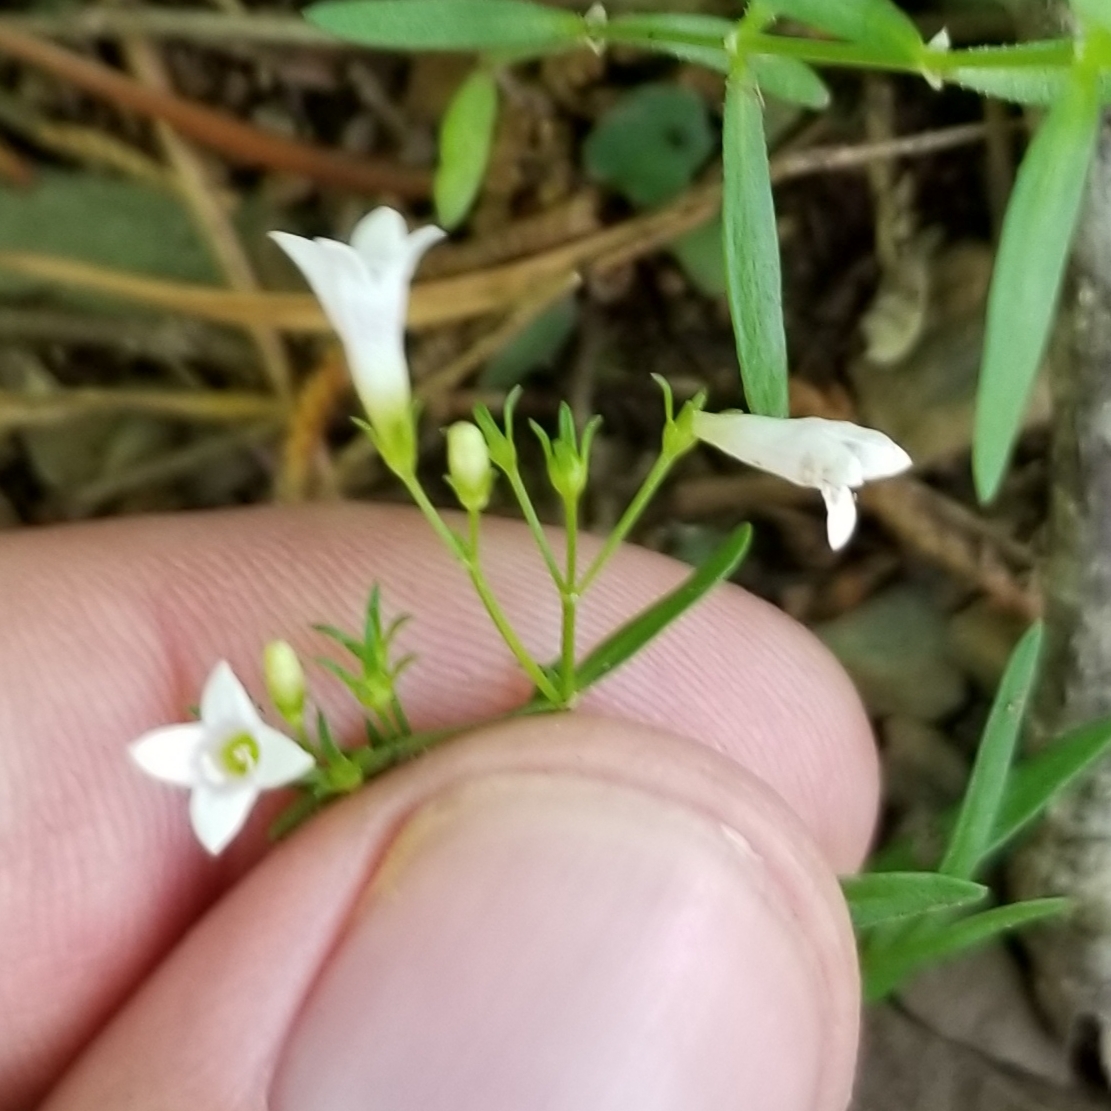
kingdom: Plantae
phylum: Tracheophyta
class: Magnoliopsida
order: Gentianales
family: Rubiaceae
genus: Houstonia
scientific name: Houstonia longifolia
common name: Long-leaved bluets
